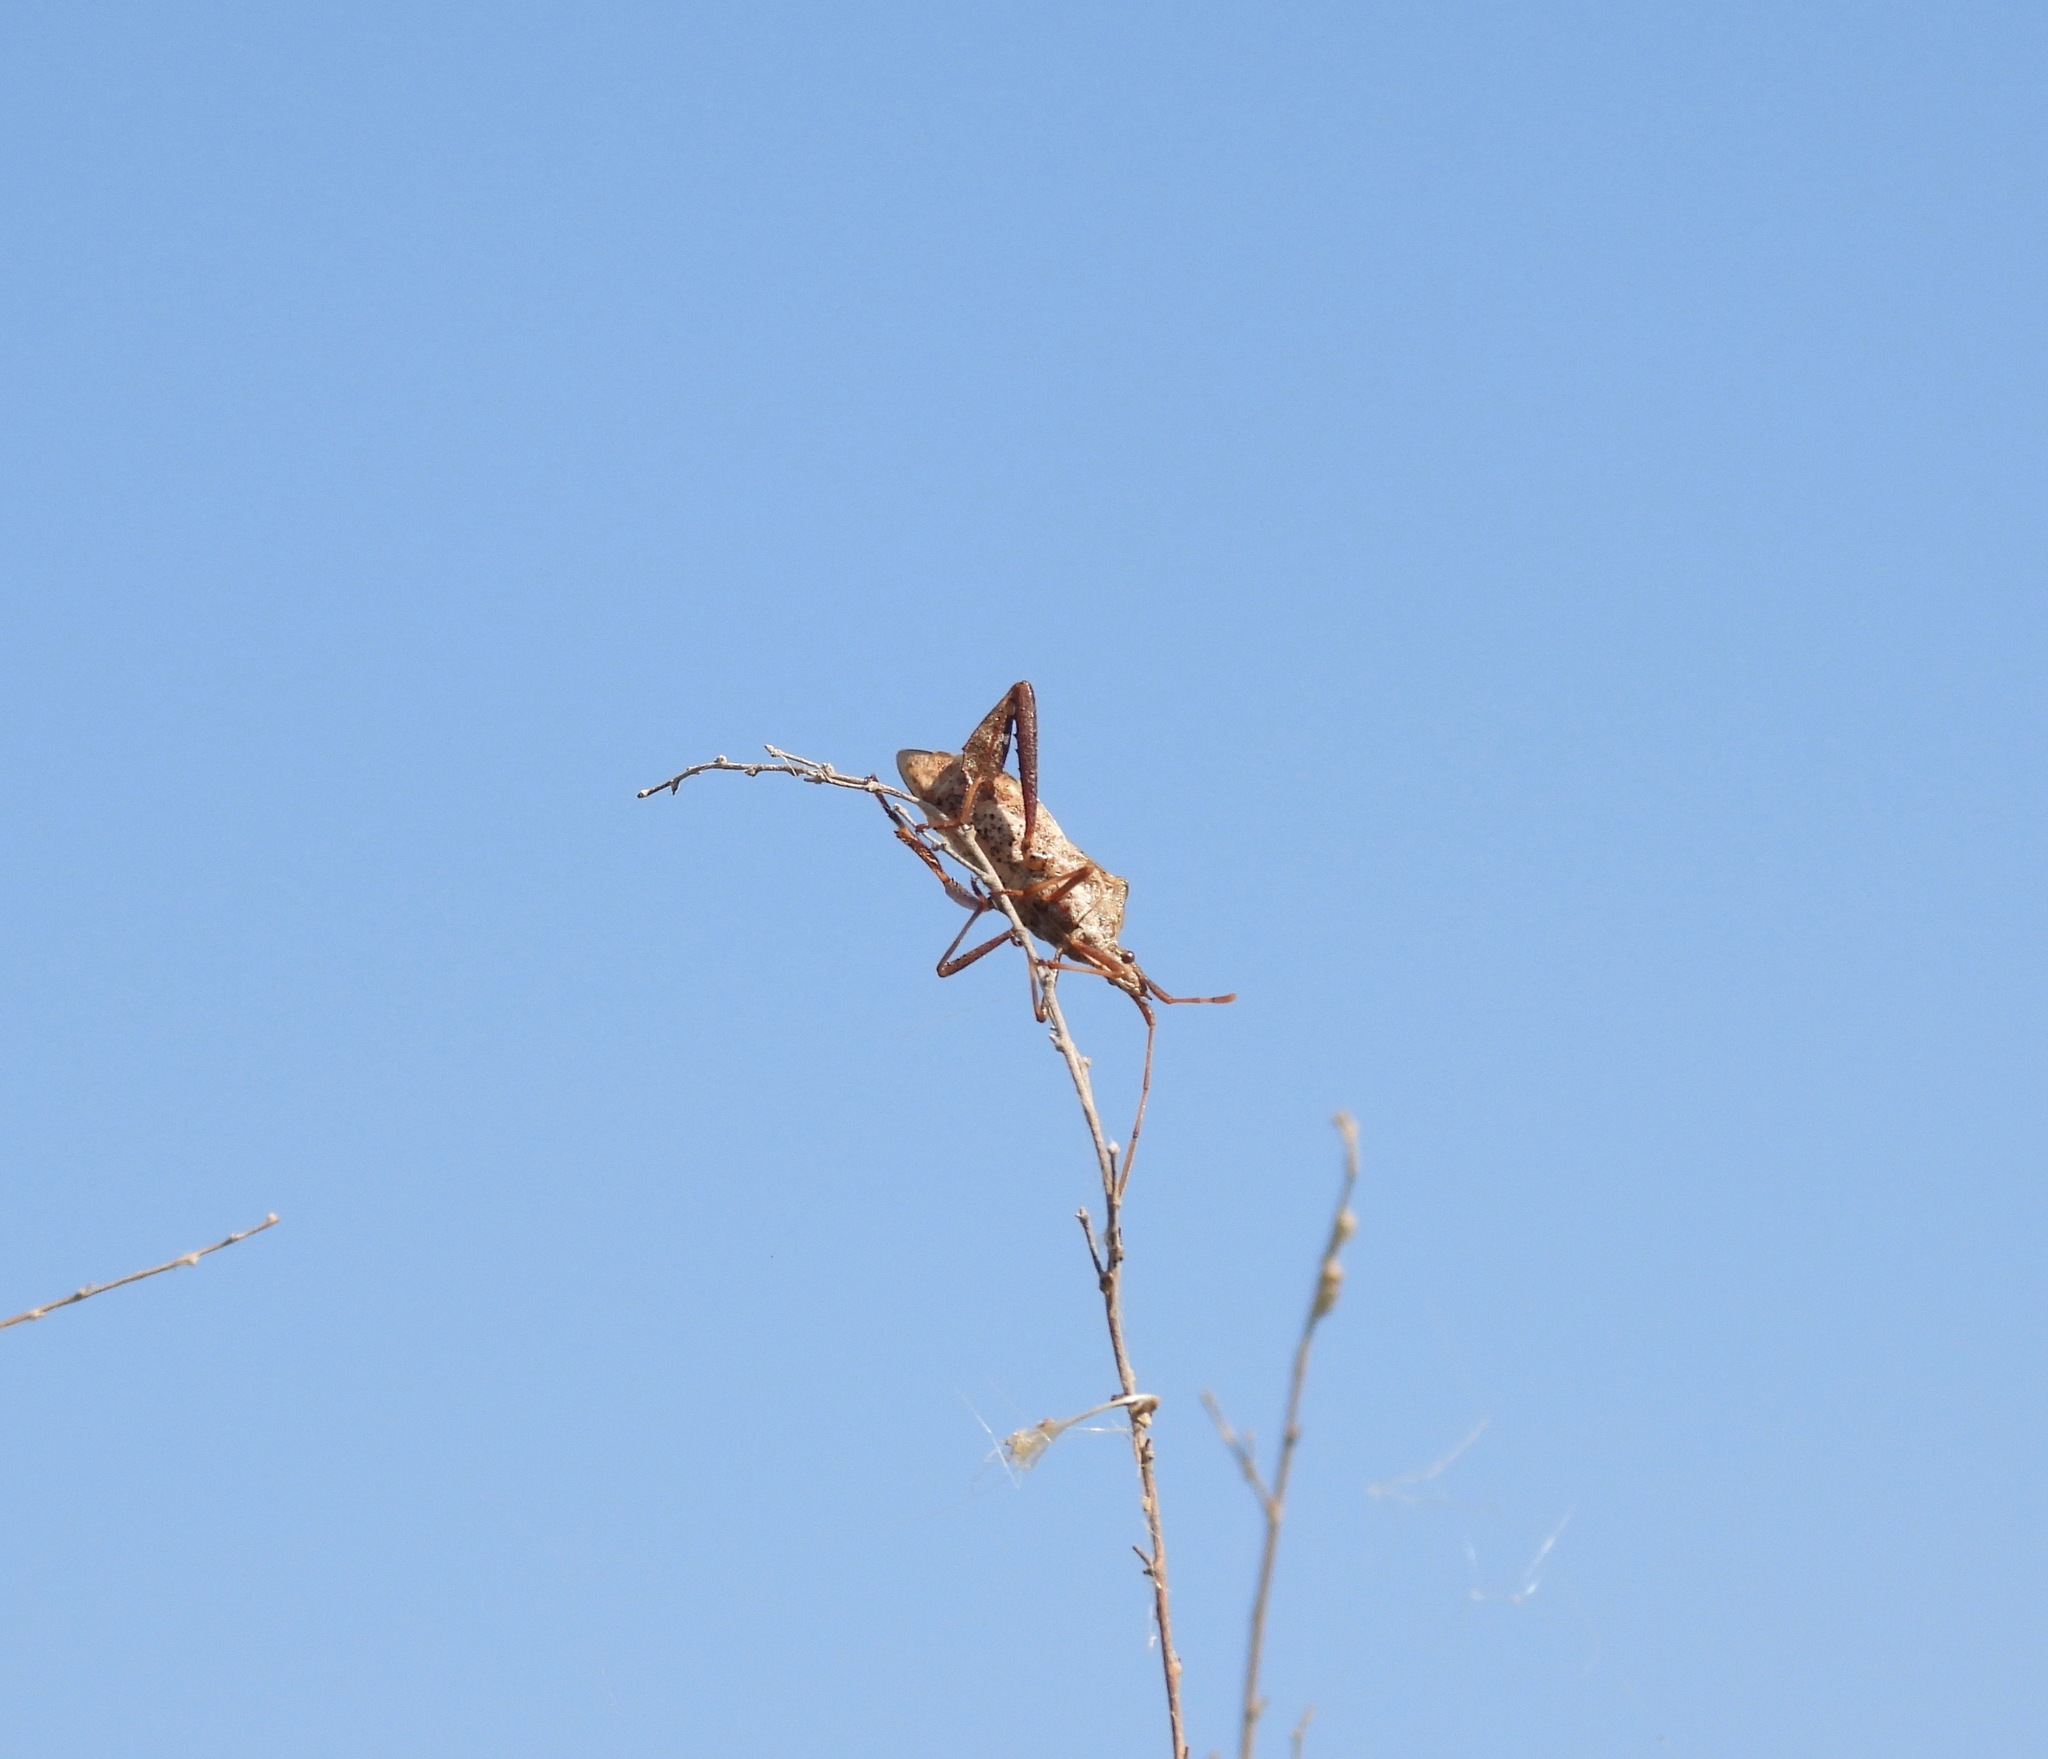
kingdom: Animalia
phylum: Arthropoda
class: Insecta
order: Hemiptera
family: Coreidae
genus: Leptoglossus
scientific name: Leptoglossus clypealis
